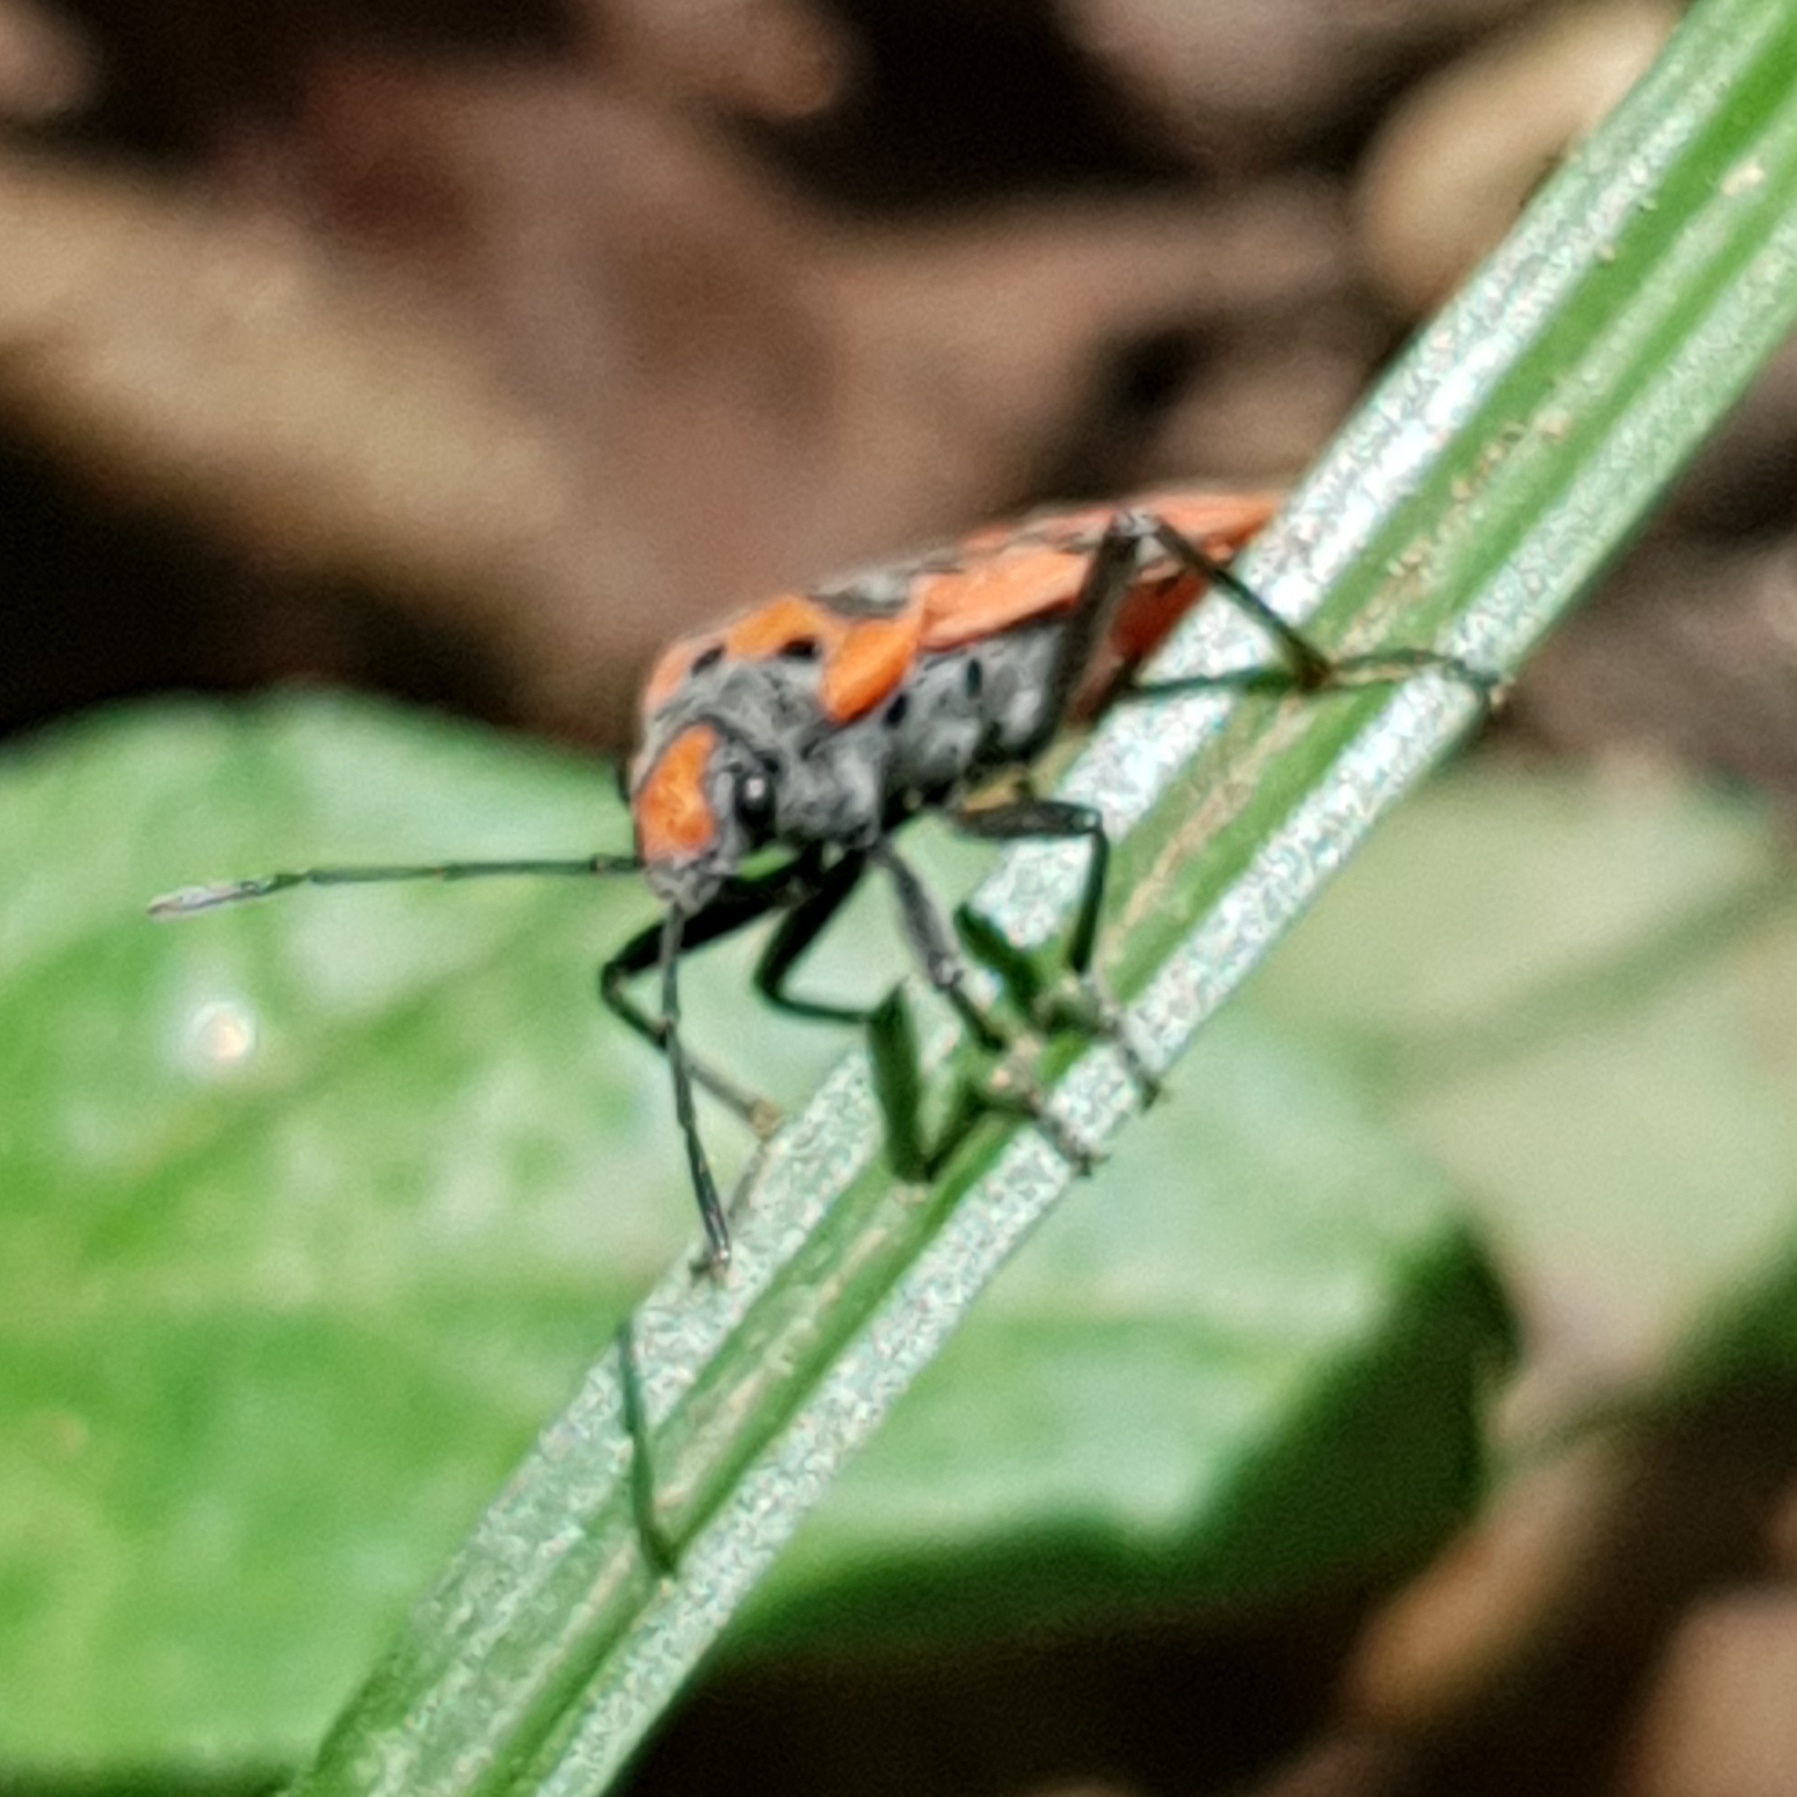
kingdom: Animalia
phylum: Arthropoda
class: Insecta
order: Hemiptera
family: Lygaeidae
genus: Lygaeus
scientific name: Lygaeus equestris
